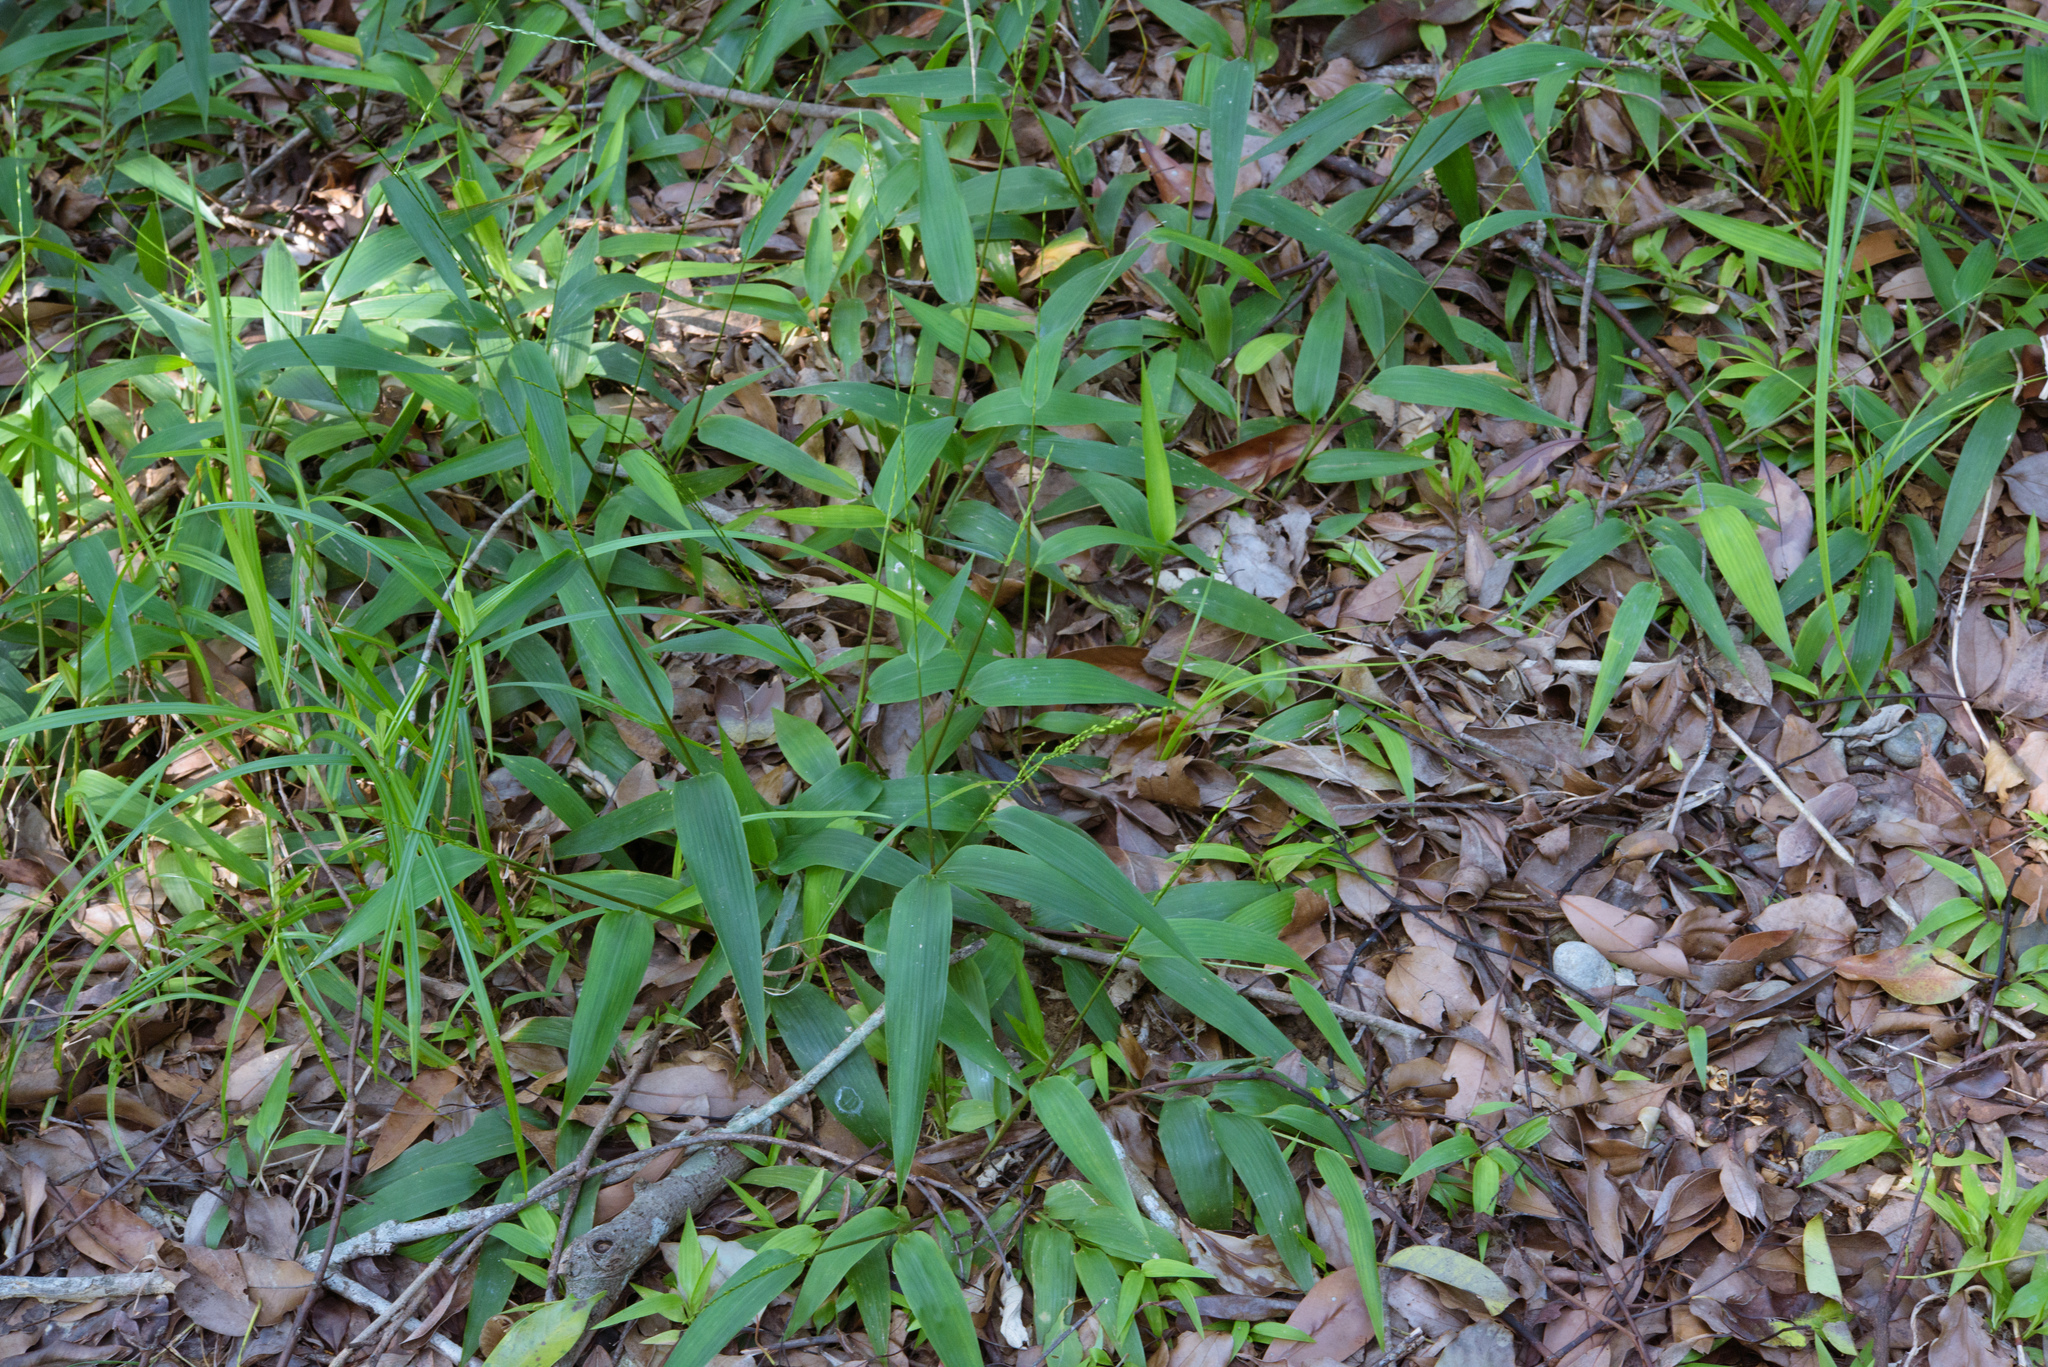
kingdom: Plantae
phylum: Tracheophyta
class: Liliopsida
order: Poales
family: Poaceae
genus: Lophatherum
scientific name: Lophatherum gracile
